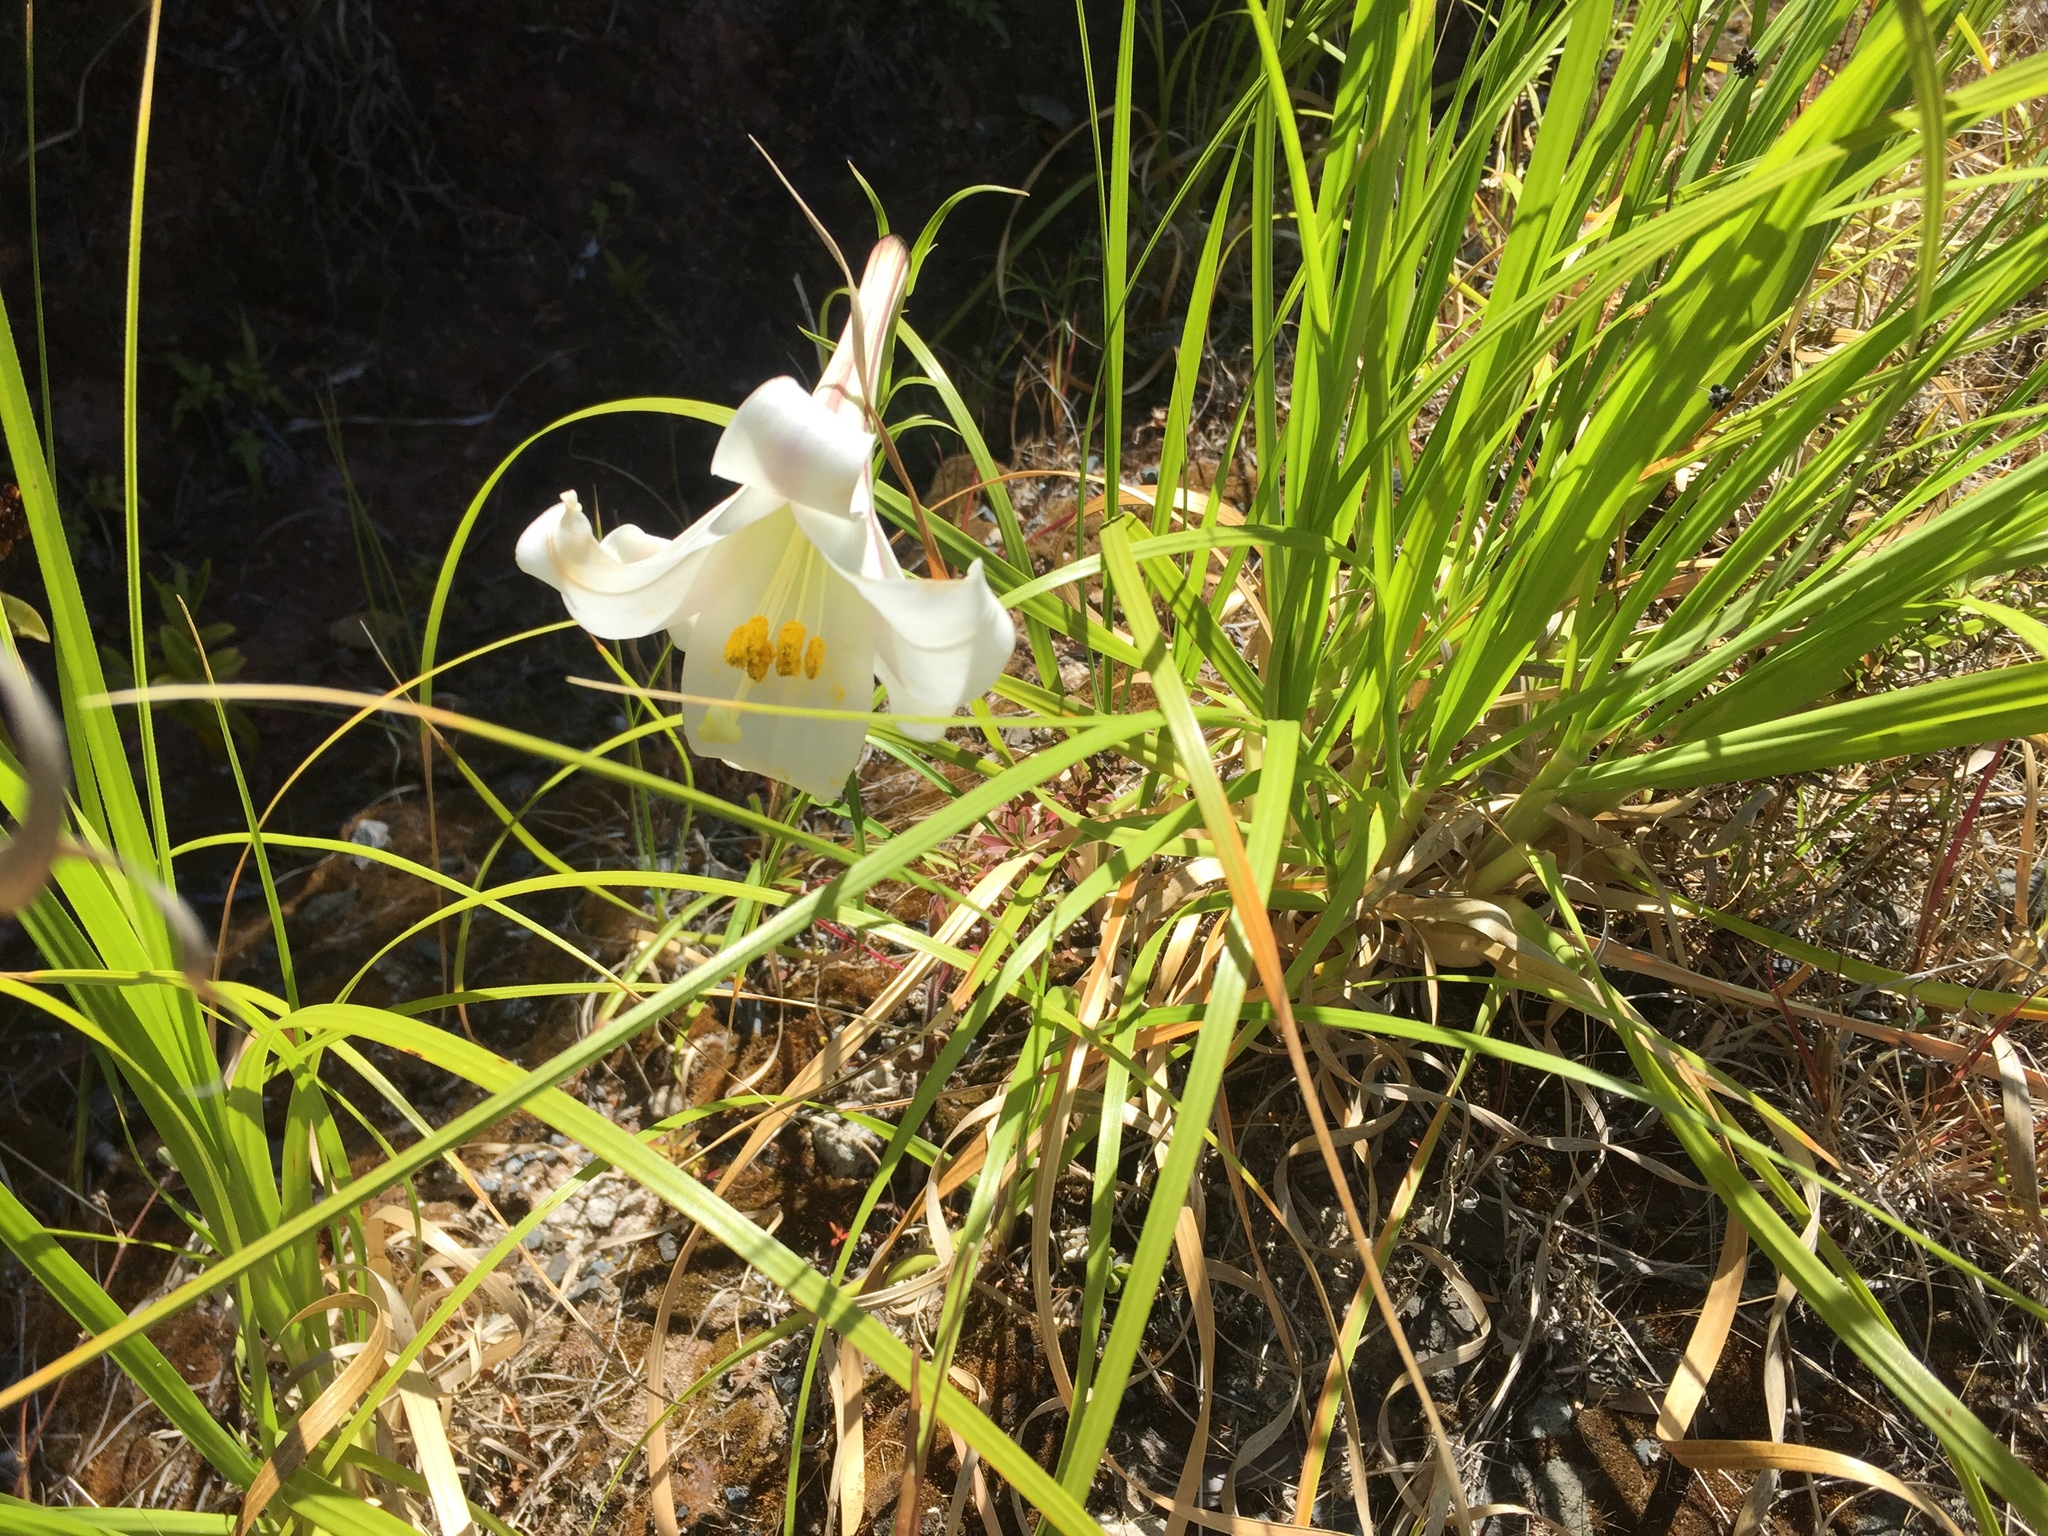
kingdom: Plantae
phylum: Tracheophyta
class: Liliopsida
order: Liliales
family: Liliaceae
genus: Lilium
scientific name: Lilium formosanum
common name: Formosa lily
